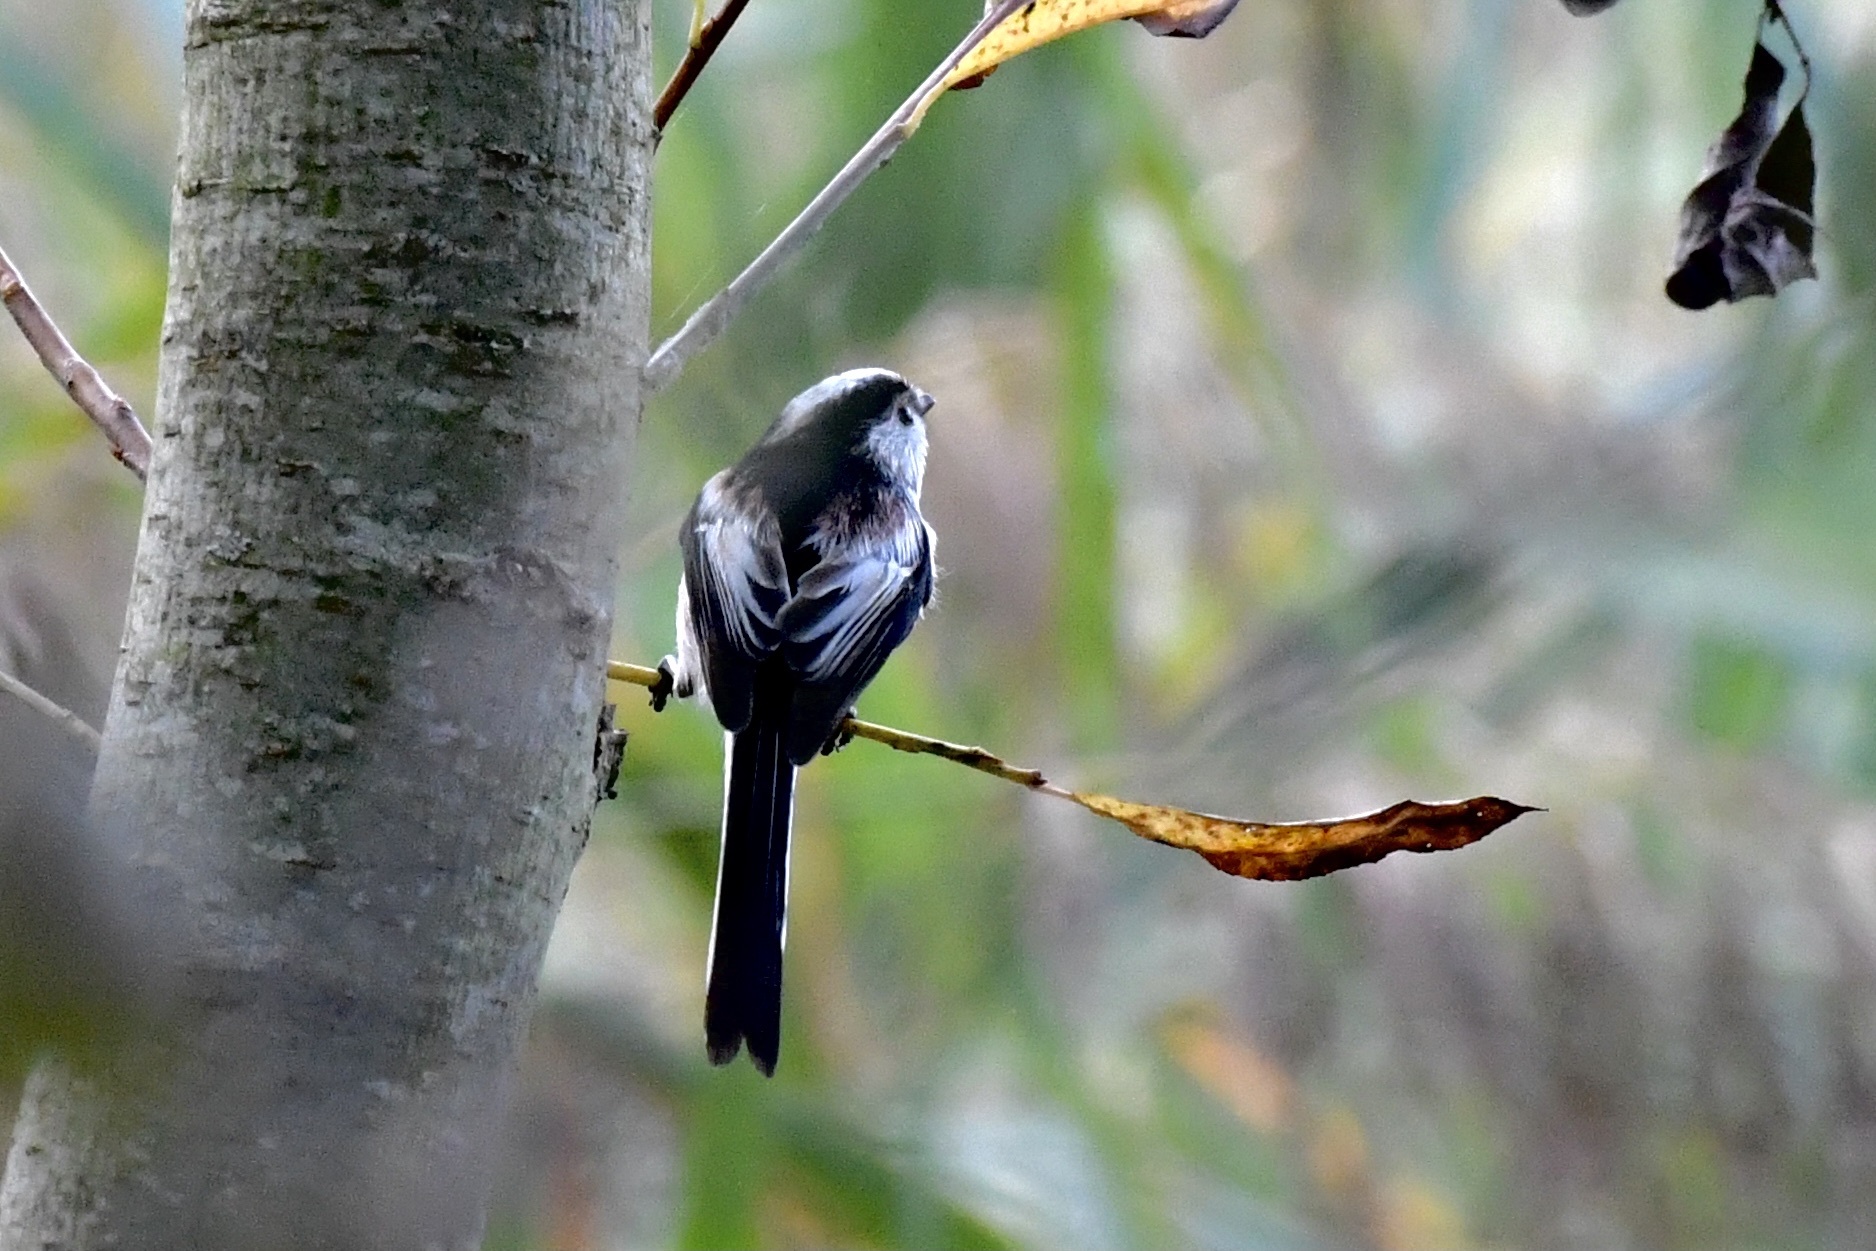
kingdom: Animalia
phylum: Chordata
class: Aves
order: Passeriformes
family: Aegithalidae
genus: Aegithalos
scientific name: Aegithalos caudatus
